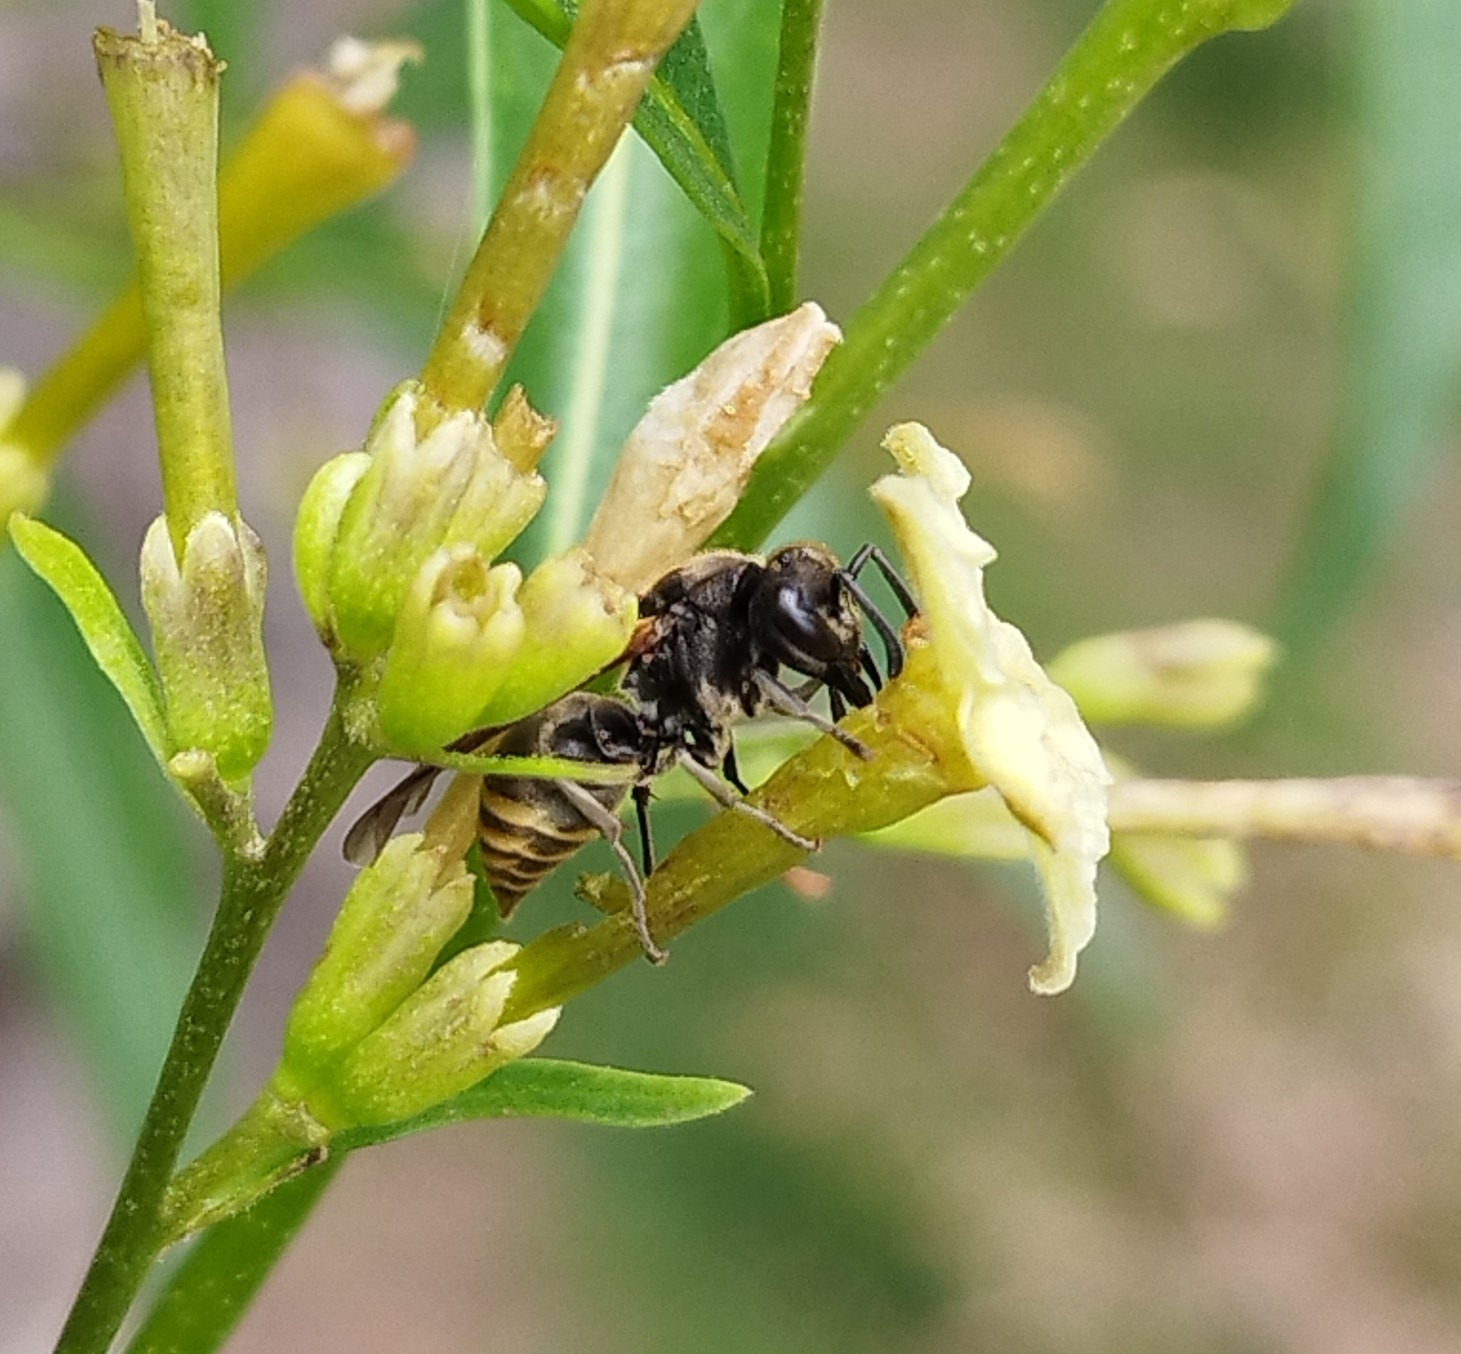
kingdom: Animalia
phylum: Arthropoda
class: Insecta
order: Hymenoptera
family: Vespidae
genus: Brachygastra
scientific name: Brachygastra lecheguana
